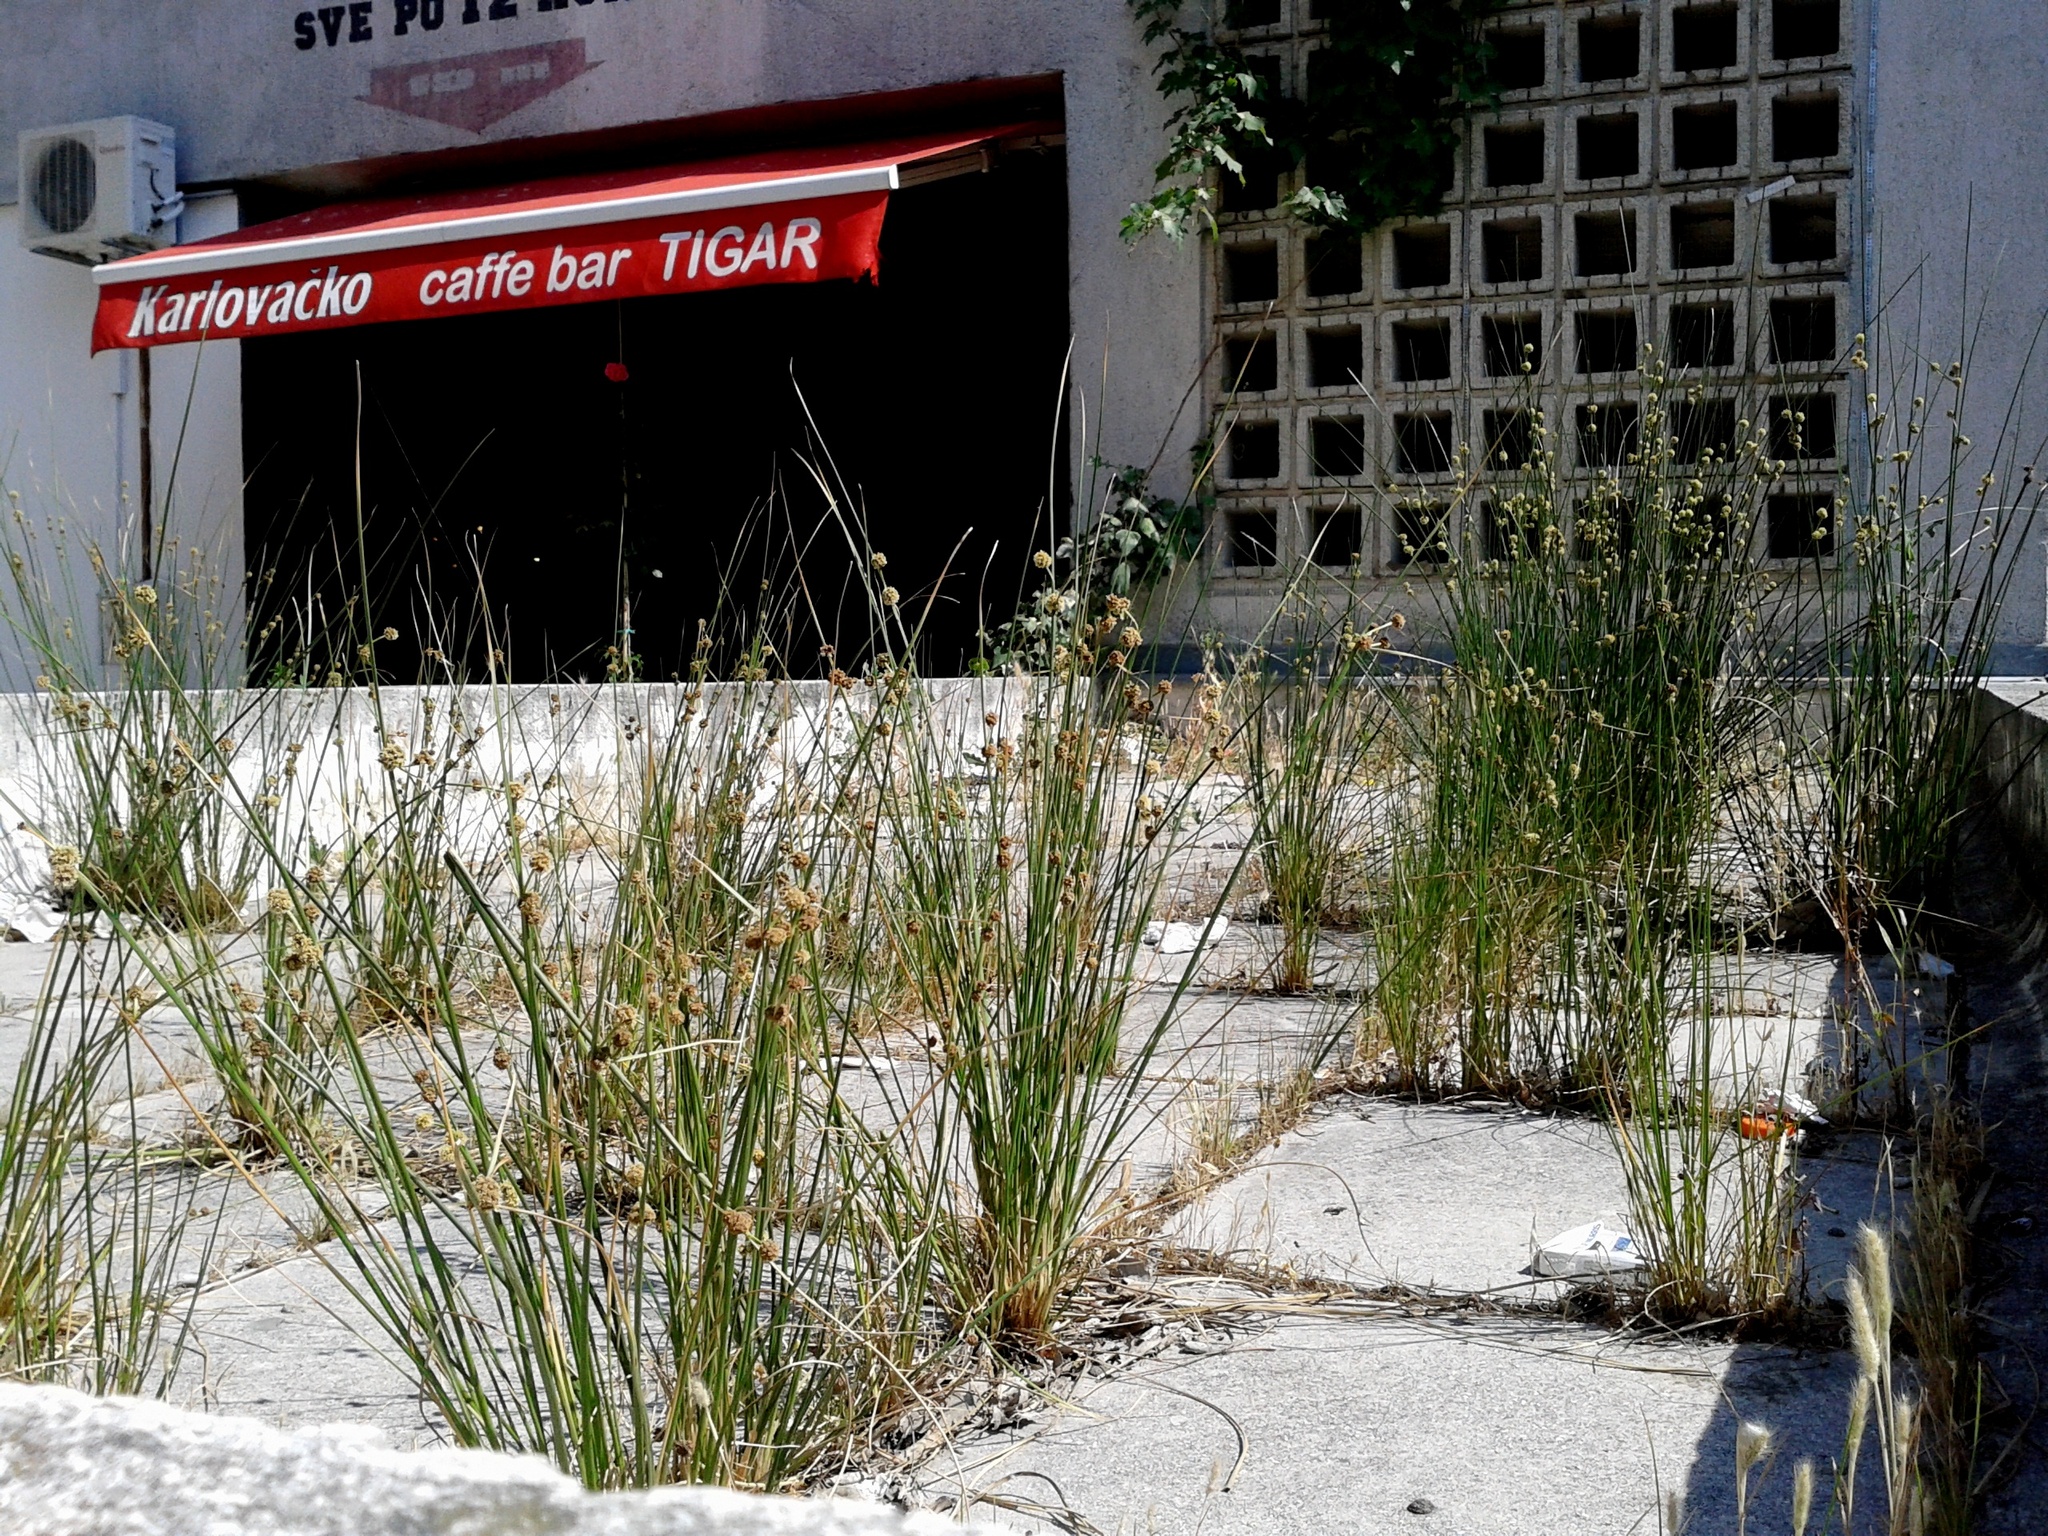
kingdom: Plantae
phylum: Tracheophyta
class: Liliopsida
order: Poales
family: Cyperaceae
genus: Scirpoides
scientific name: Scirpoides holoschoenus
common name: Round-headed club-rush
